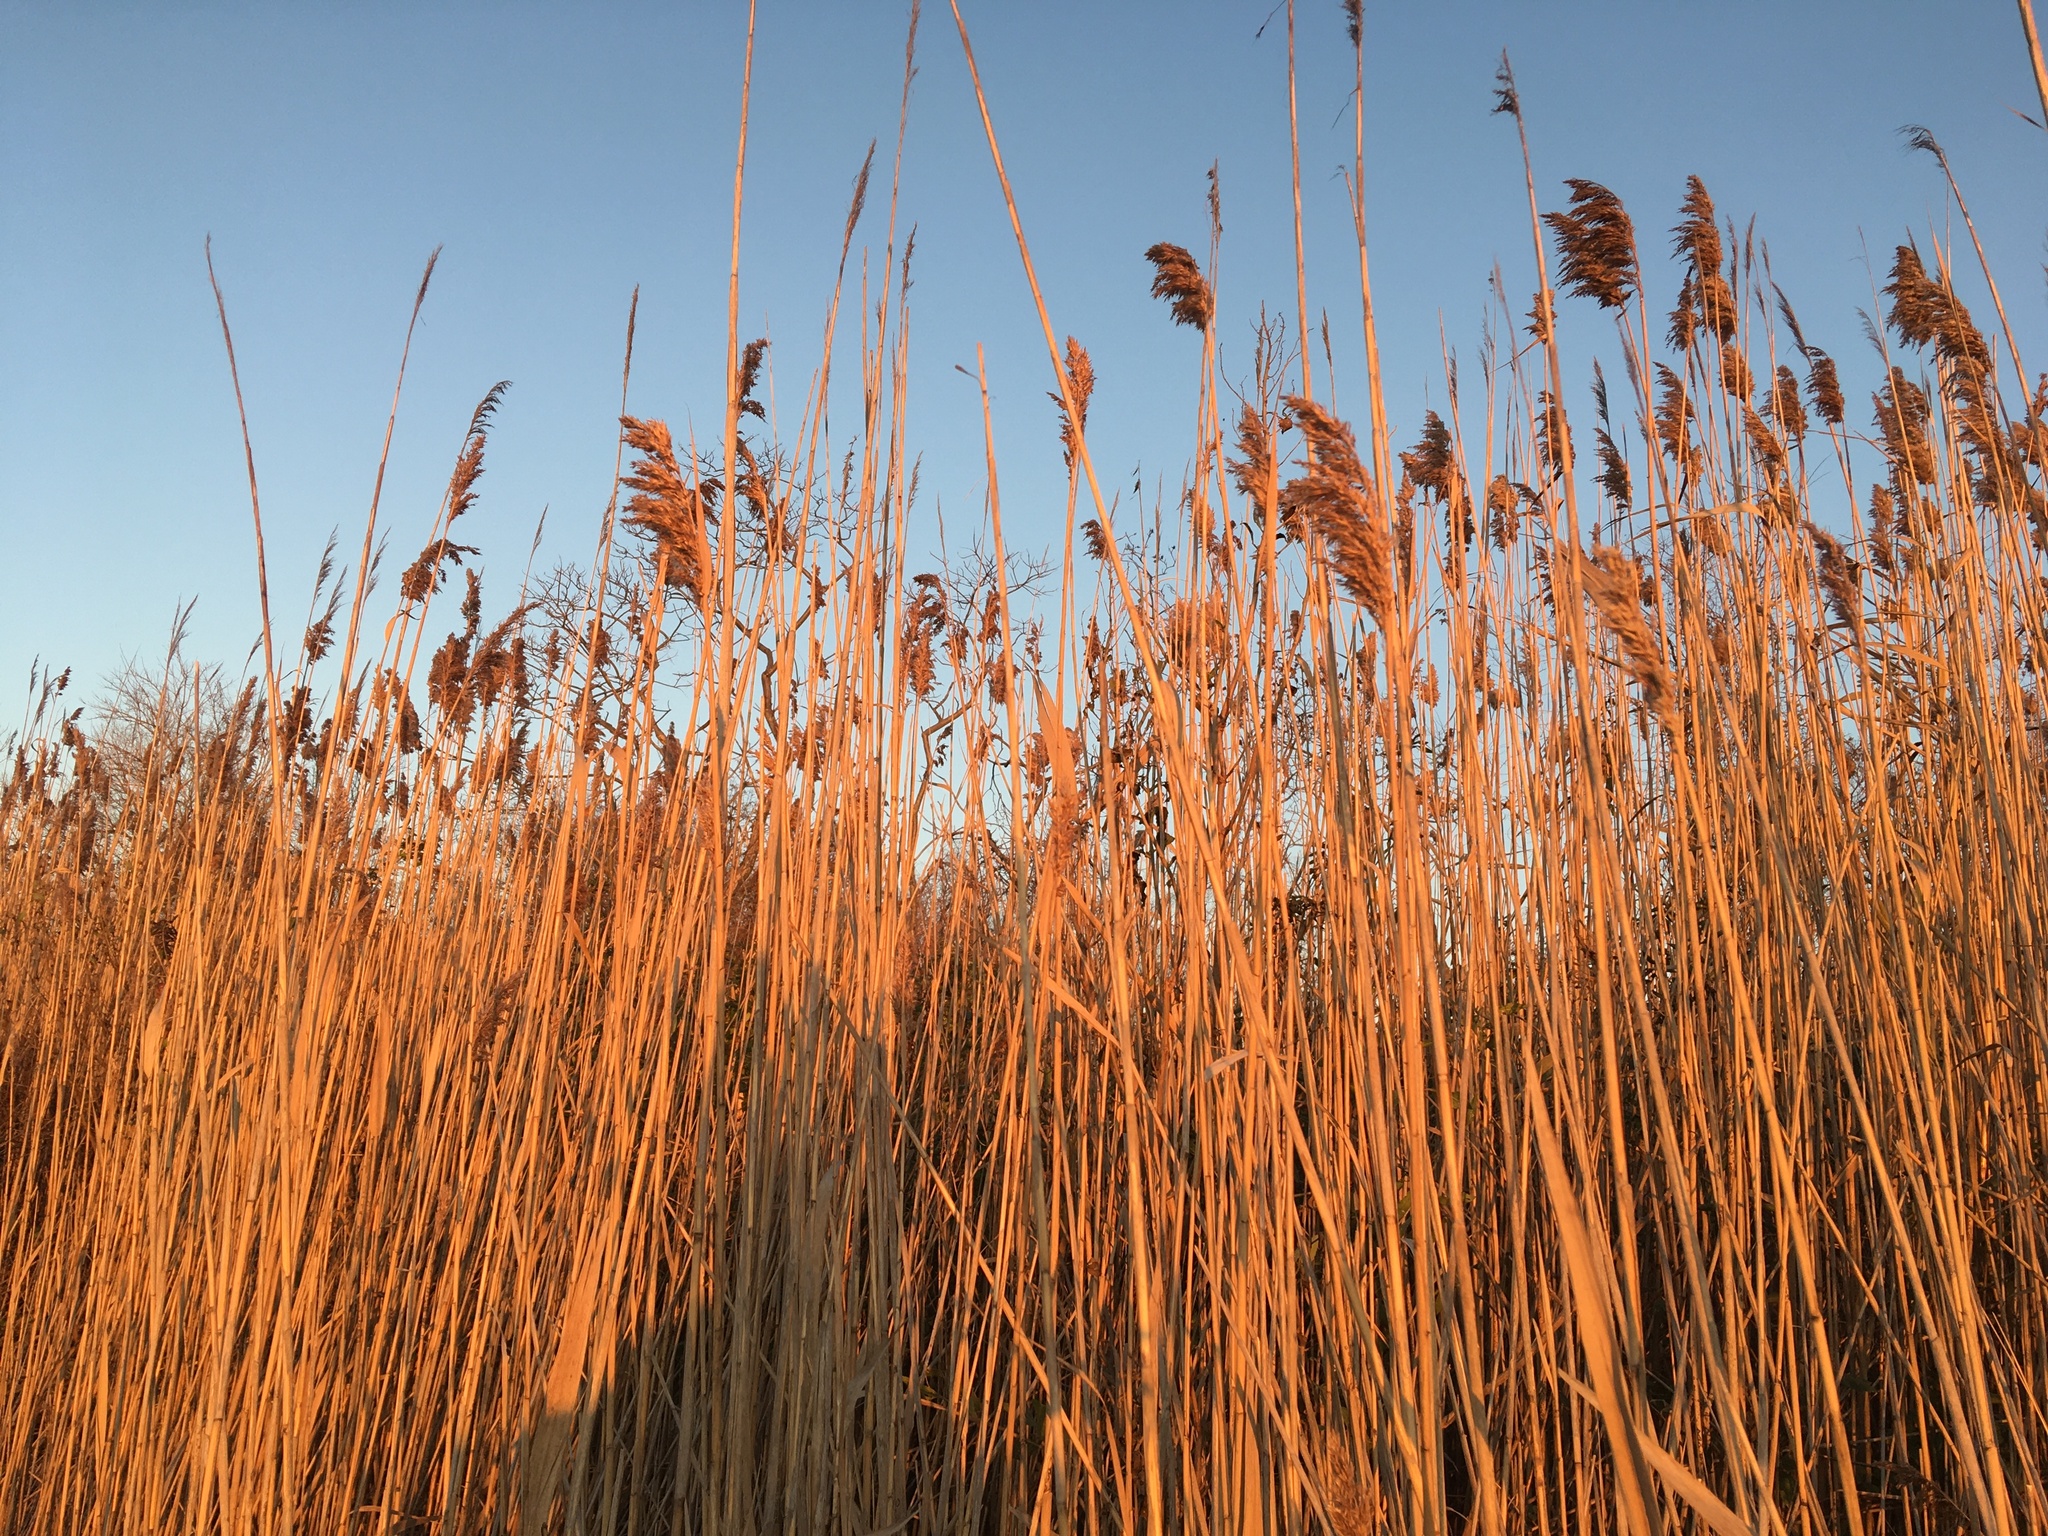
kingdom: Plantae
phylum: Tracheophyta
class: Liliopsida
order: Poales
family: Poaceae
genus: Phragmites
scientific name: Phragmites australis
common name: Common reed
